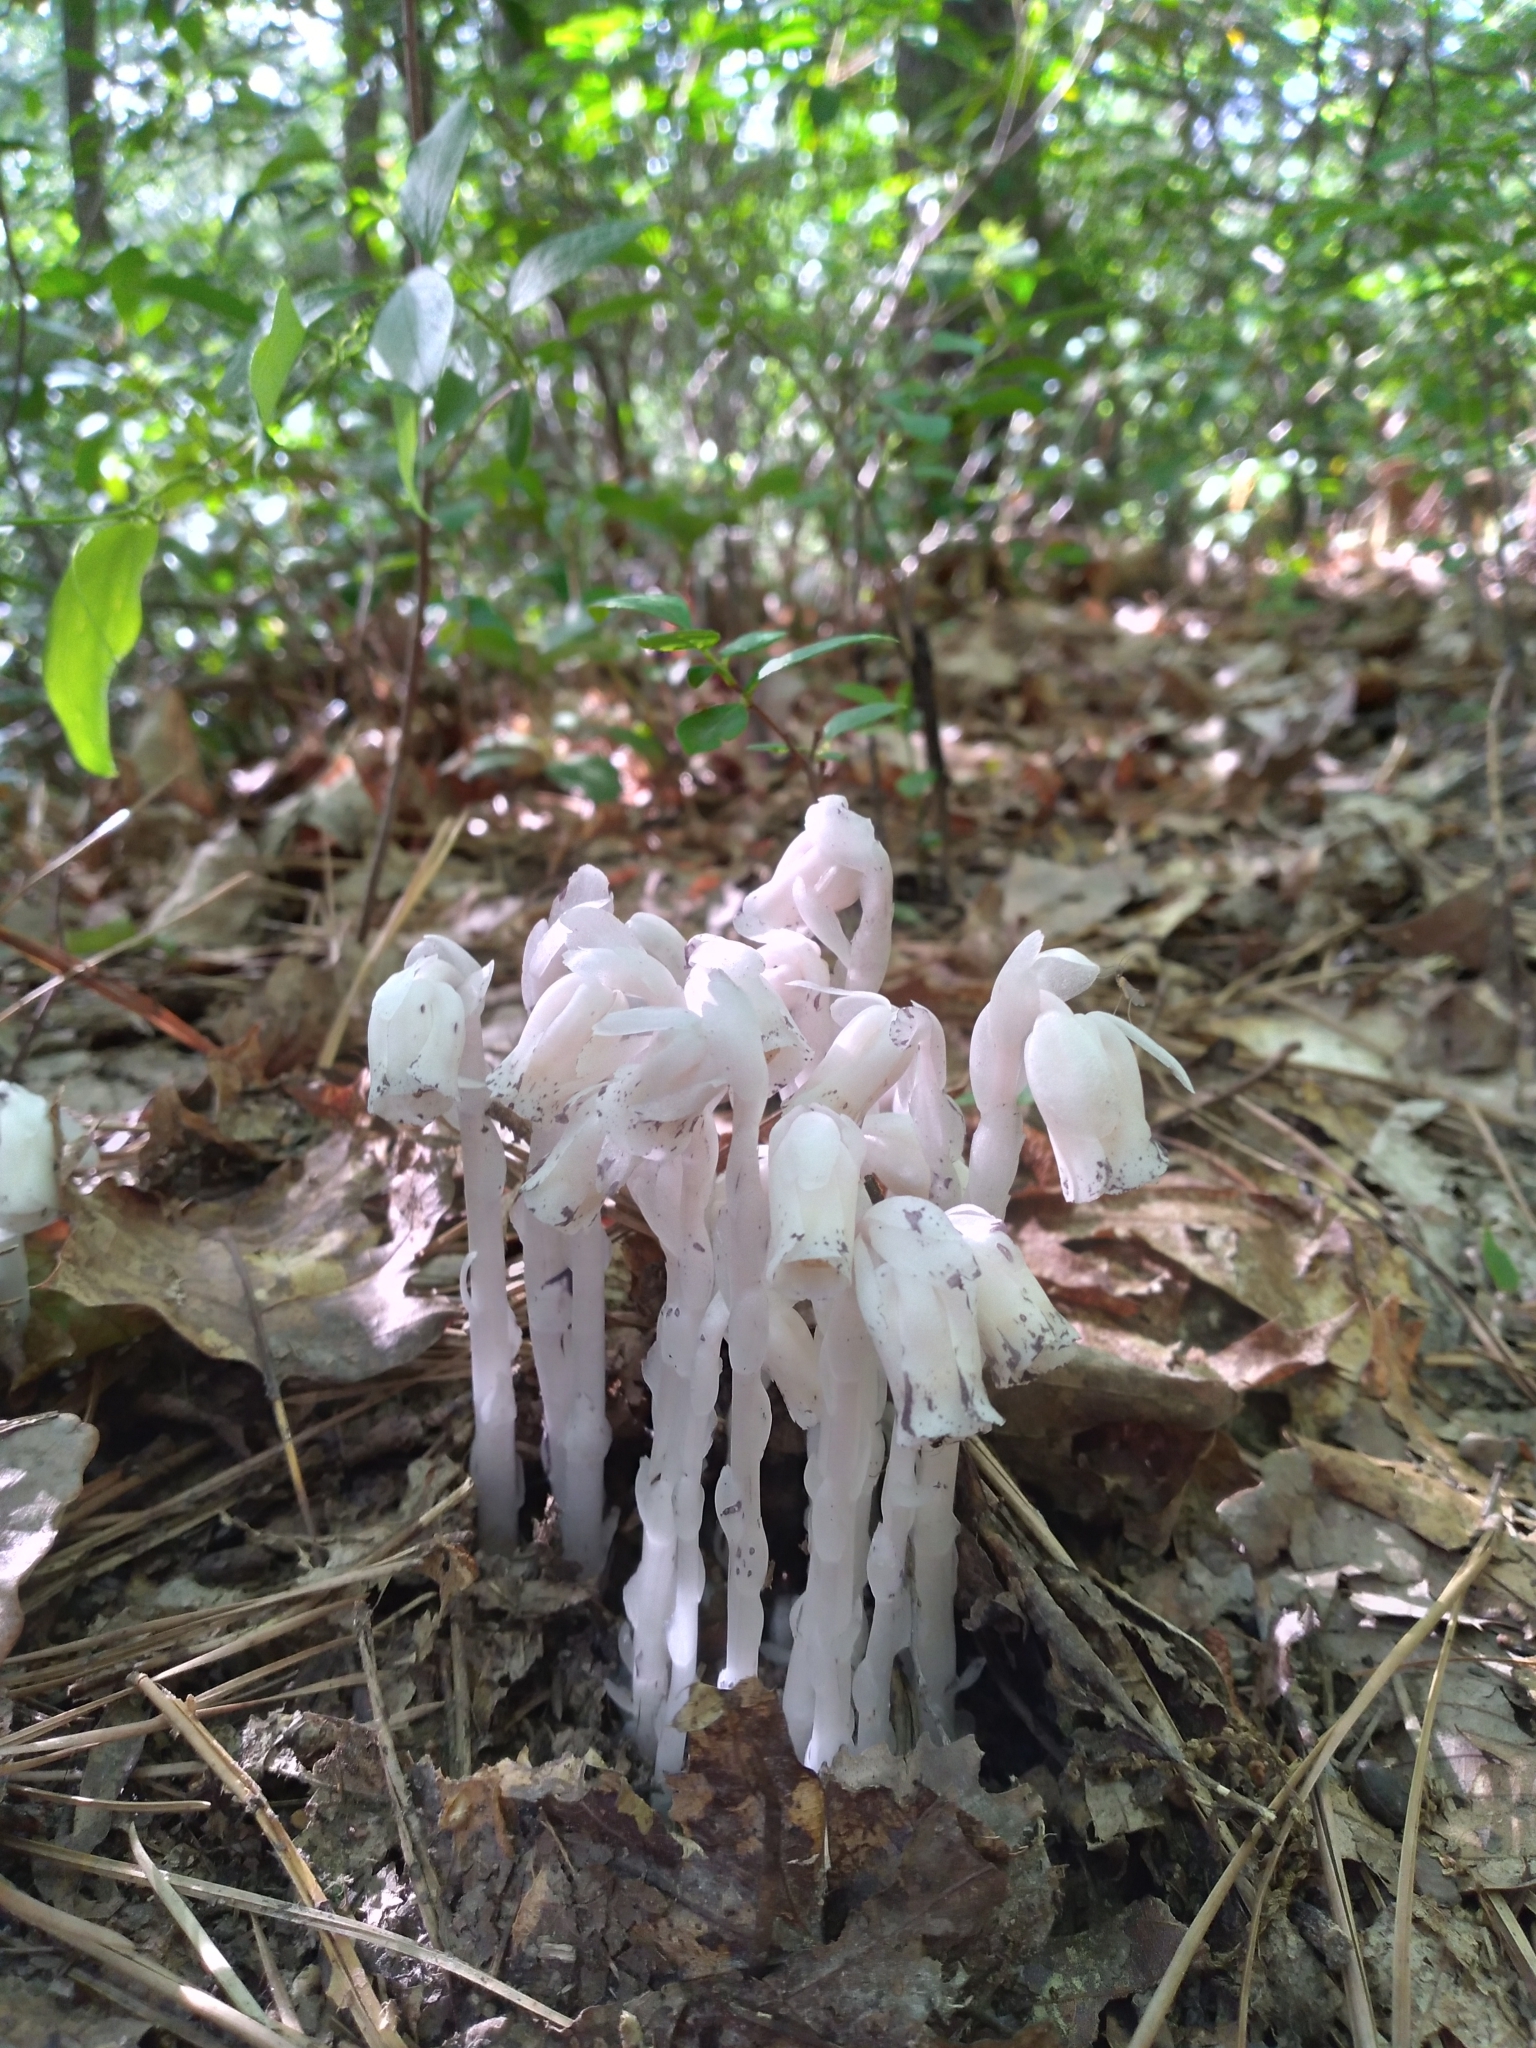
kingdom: Plantae
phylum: Tracheophyta
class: Magnoliopsida
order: Ericales
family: Ericaceae
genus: Monotropa
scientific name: Monotropa uniflora
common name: Convulsion root
